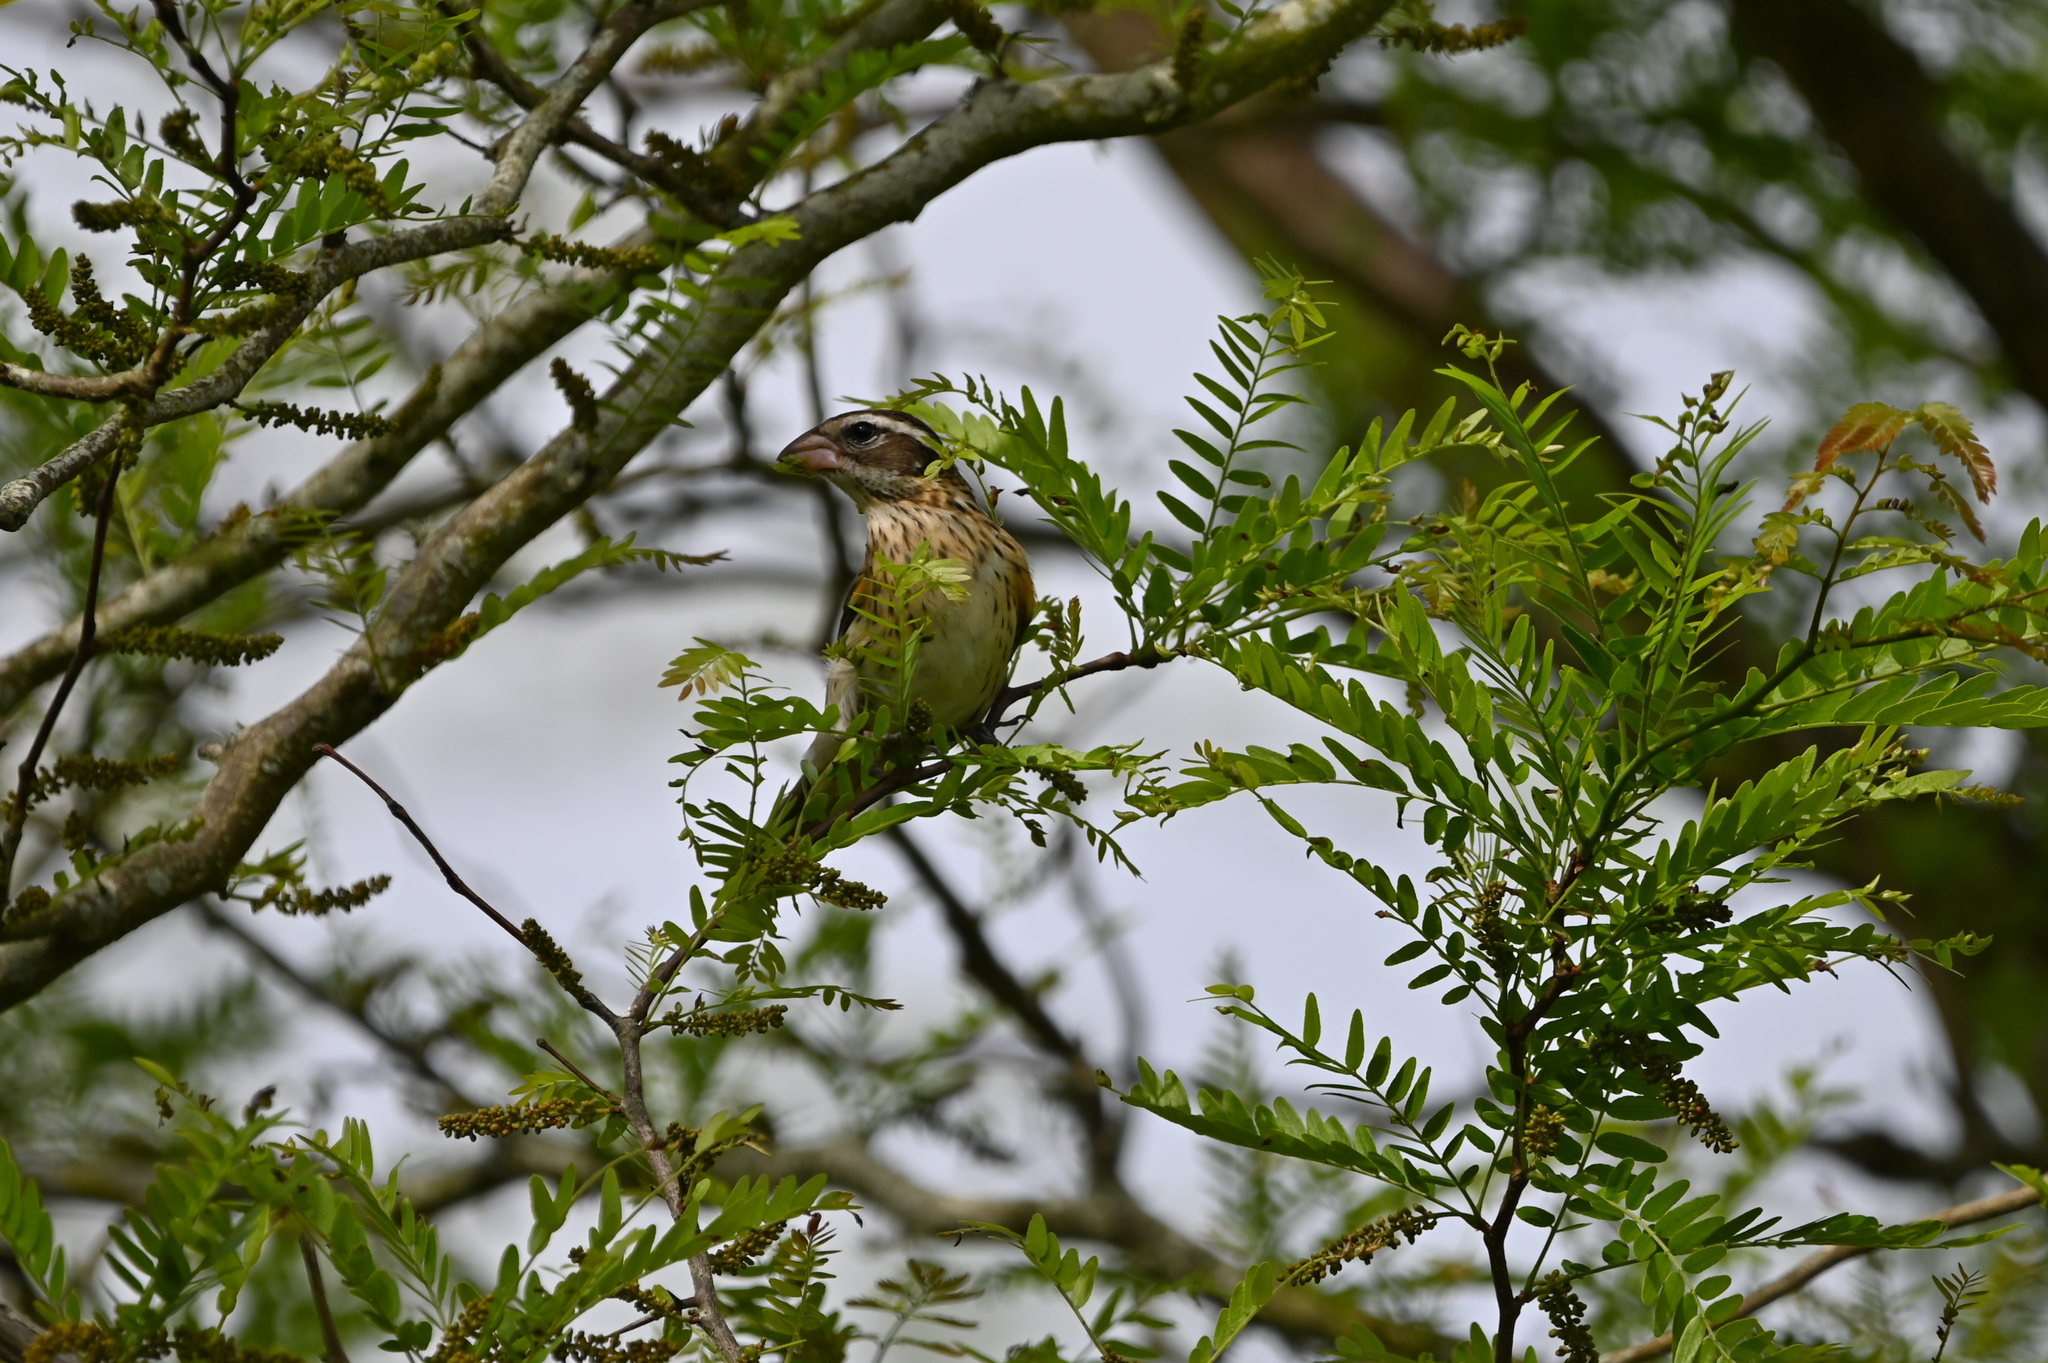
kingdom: Animalia
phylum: Chordata
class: Aves
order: Passeriformes
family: Cardinalidae
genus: Pheucticus
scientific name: Pheucticus ludovicianus
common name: Rose-breasted grosbeak
